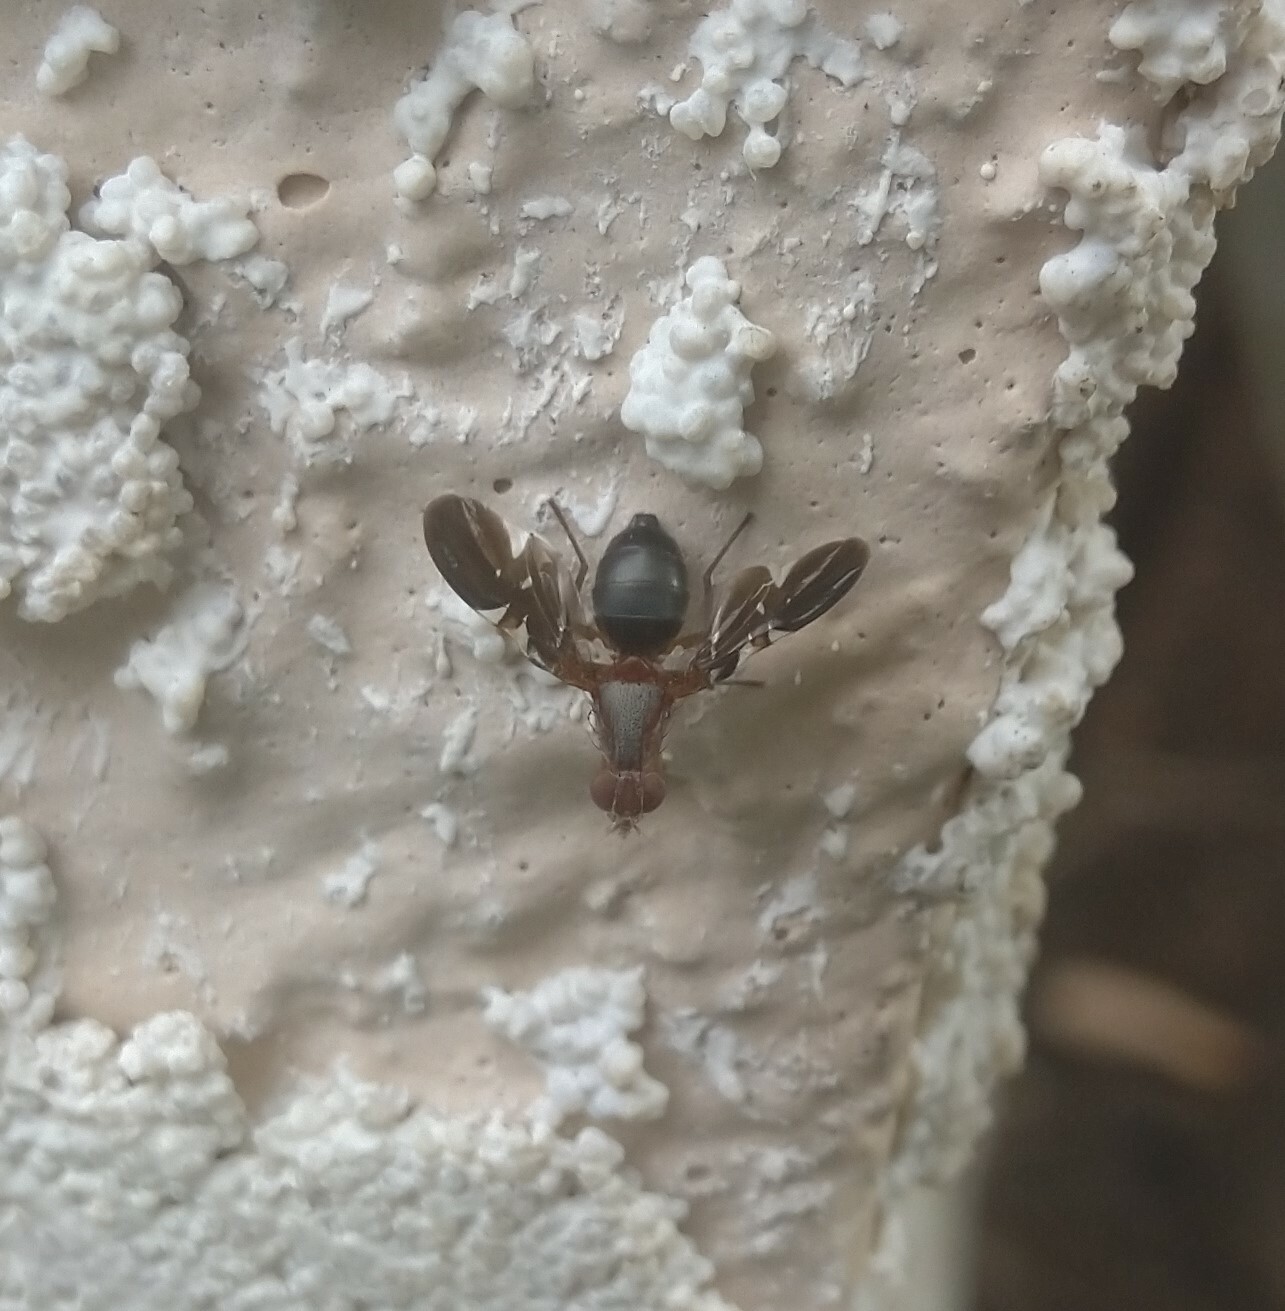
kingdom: Animalia
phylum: Arthropoda
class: Insecta
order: Diptera
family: Ulidiidae
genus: Delphinia
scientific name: Delphinia picta
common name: Common picture-winged fly
